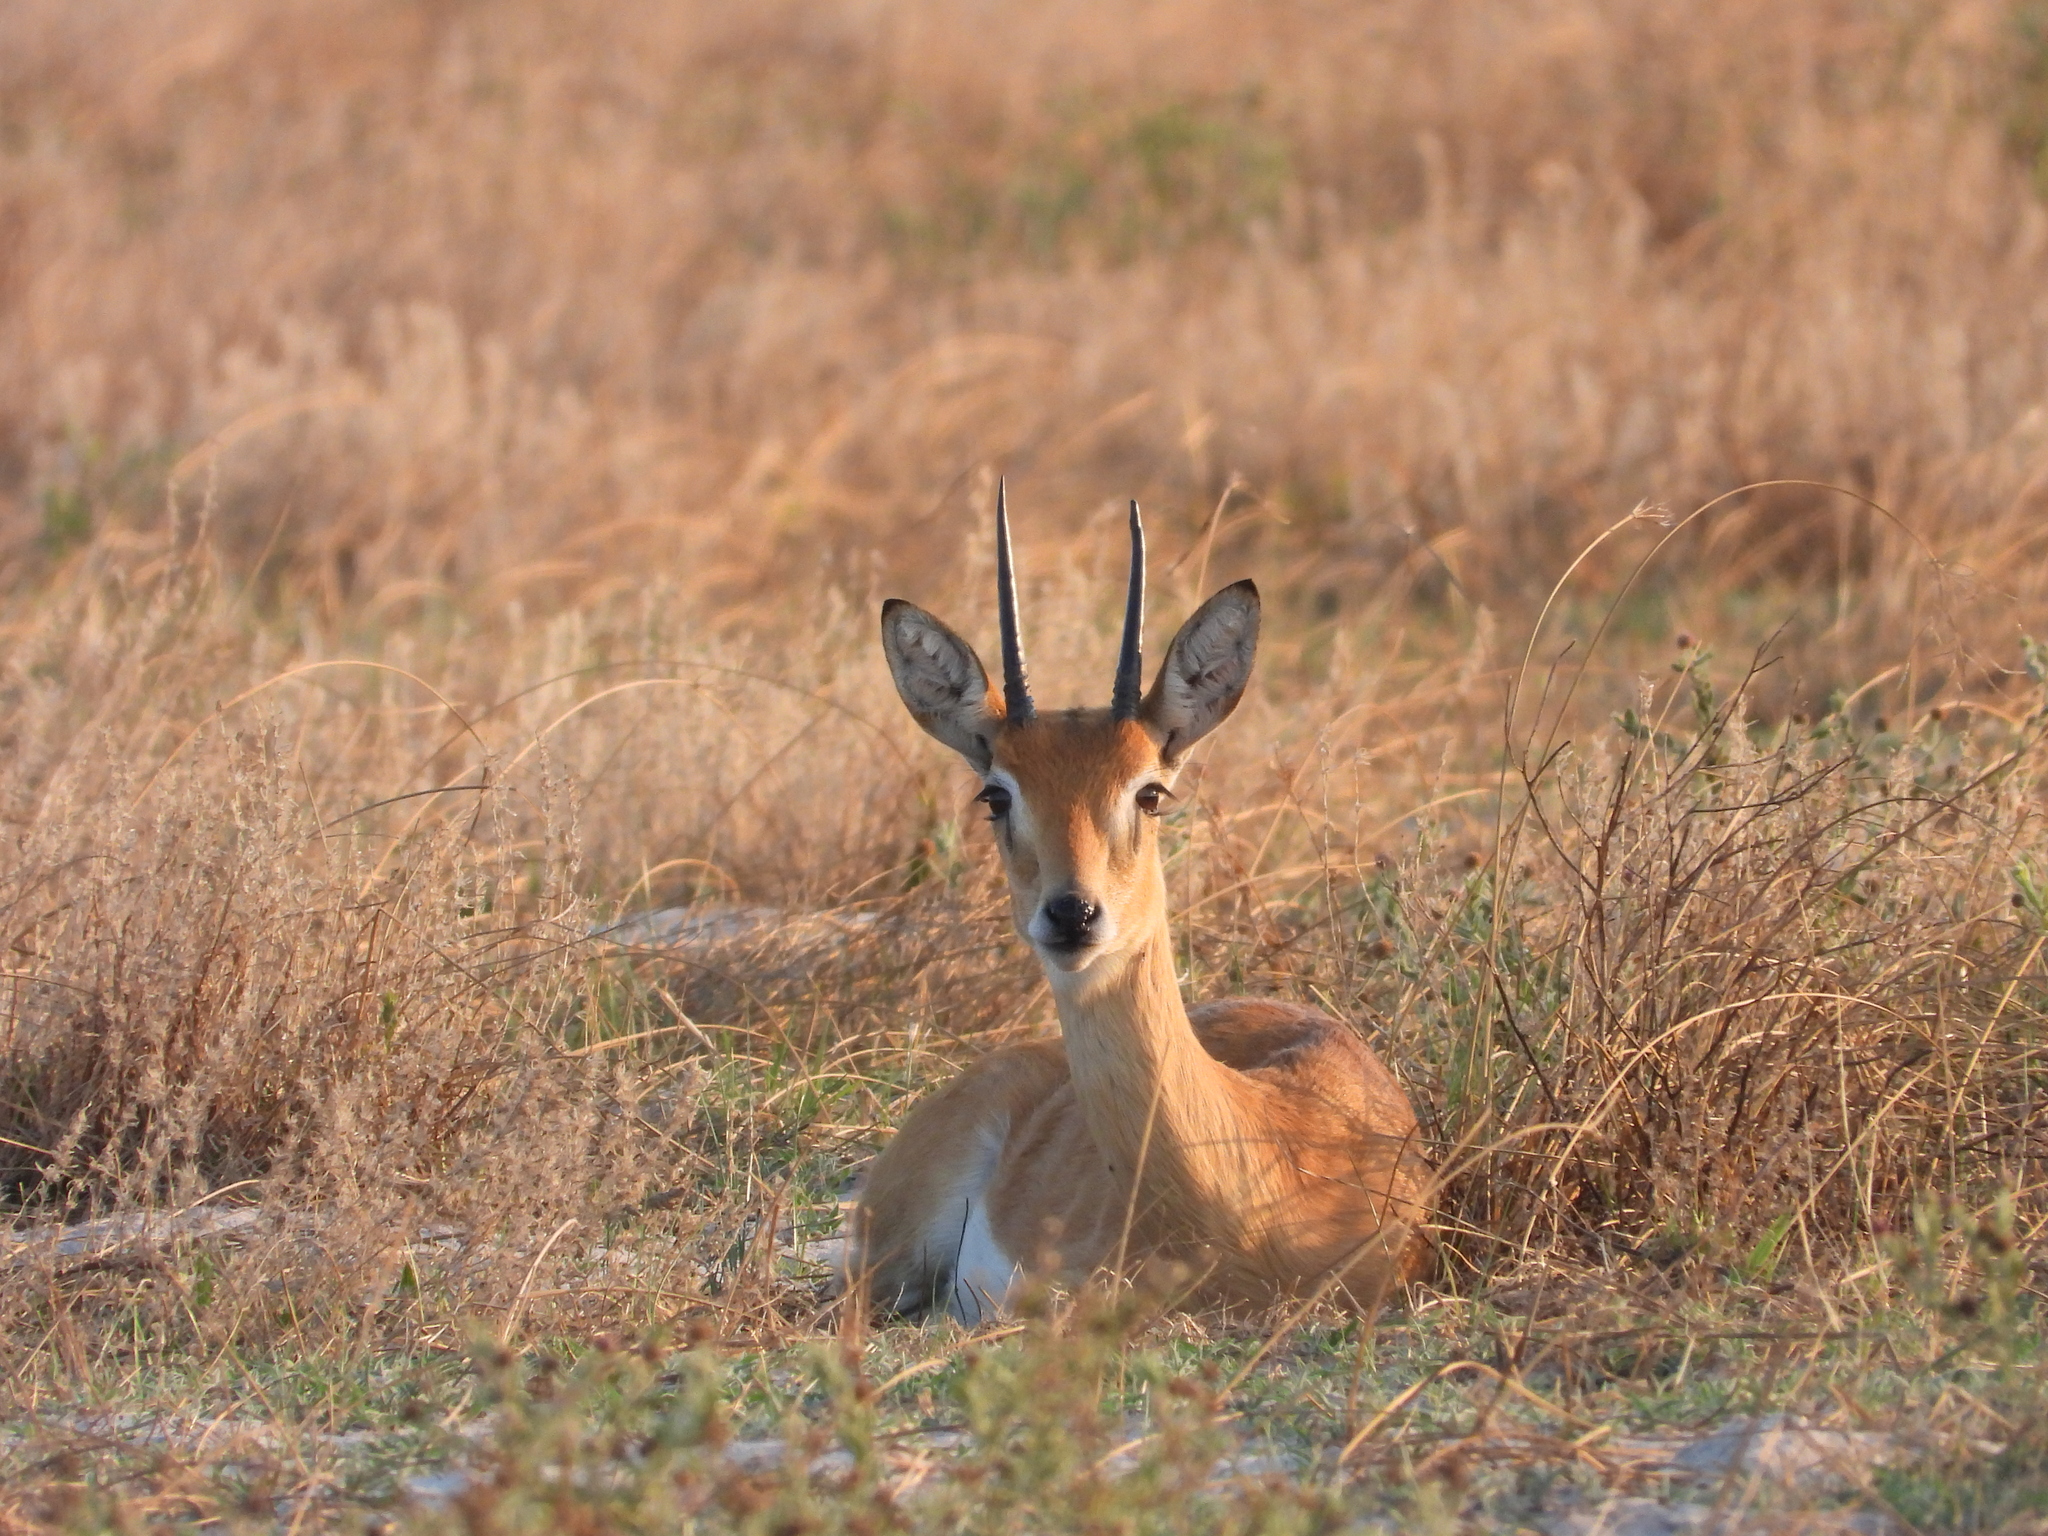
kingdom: Animalia
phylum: Chordata
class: Mammalia
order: Artiodactyla
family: Bovidae
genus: Ourebia
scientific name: Ourebia ourebi
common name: Oribi
